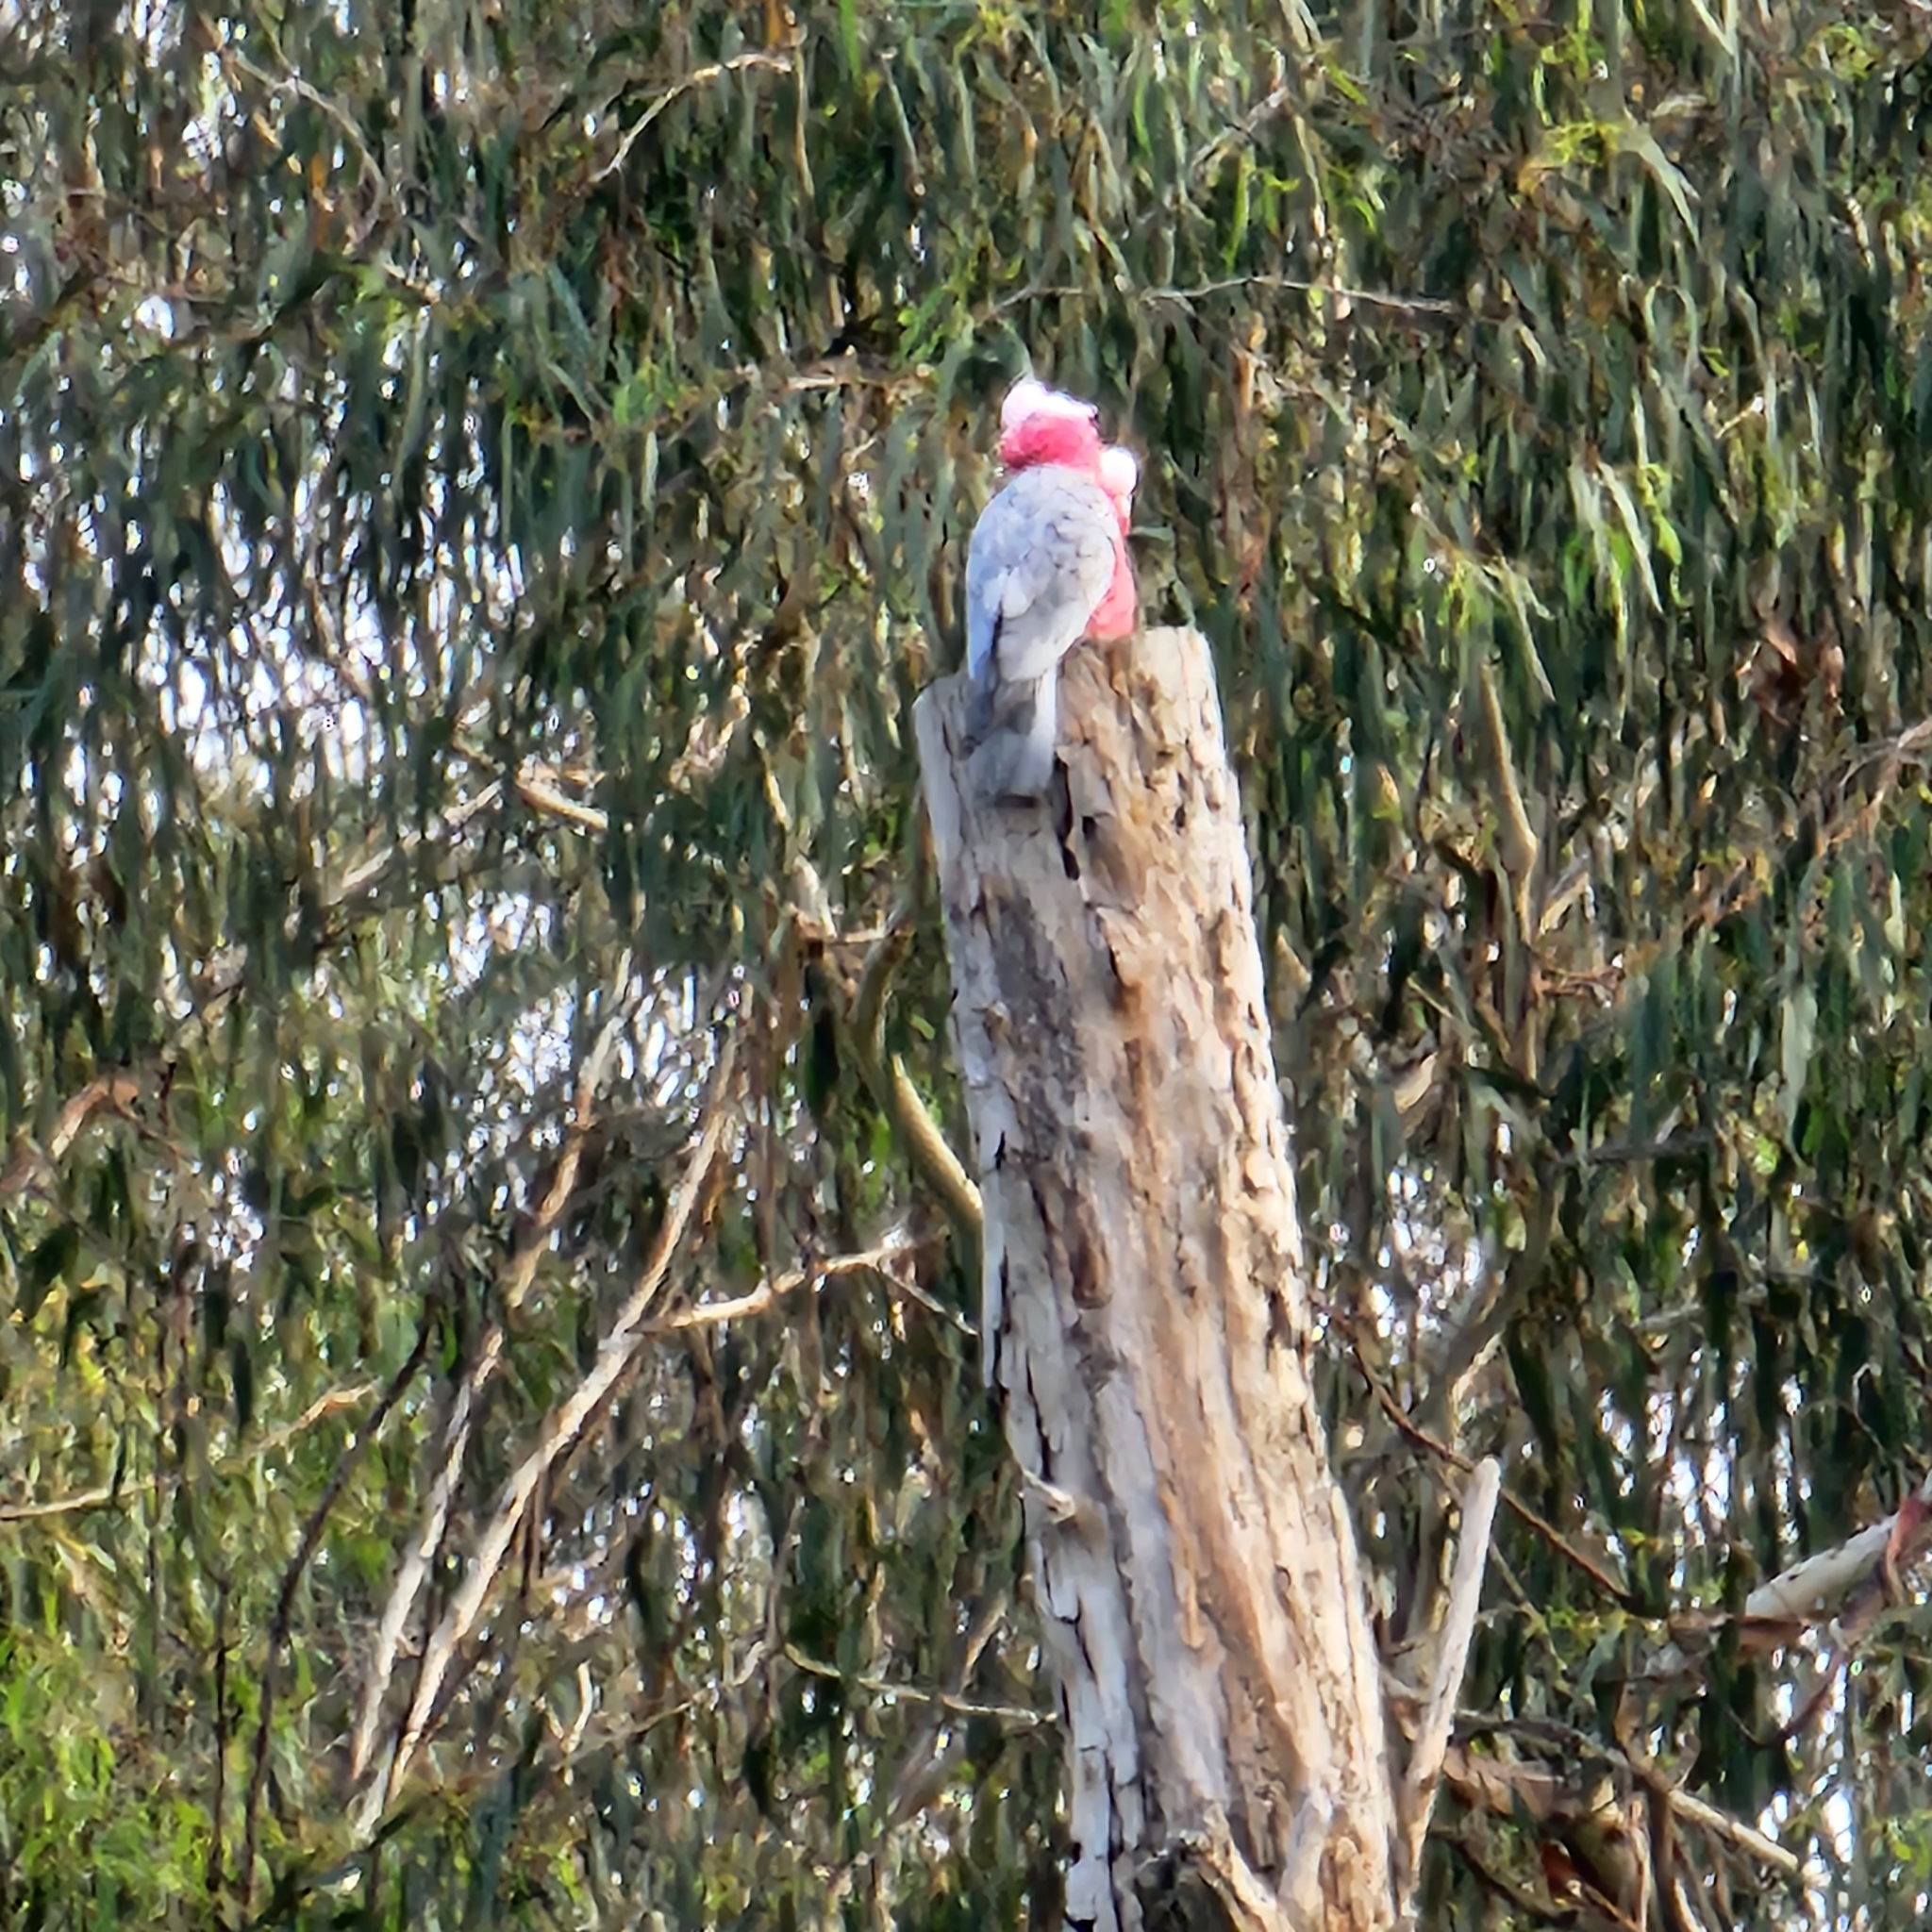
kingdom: Animalia
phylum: Chordata
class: Aves
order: Psittaciformes
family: Psittacidae
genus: Eolophus
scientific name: Eolophus roseicapilla
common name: Galah
